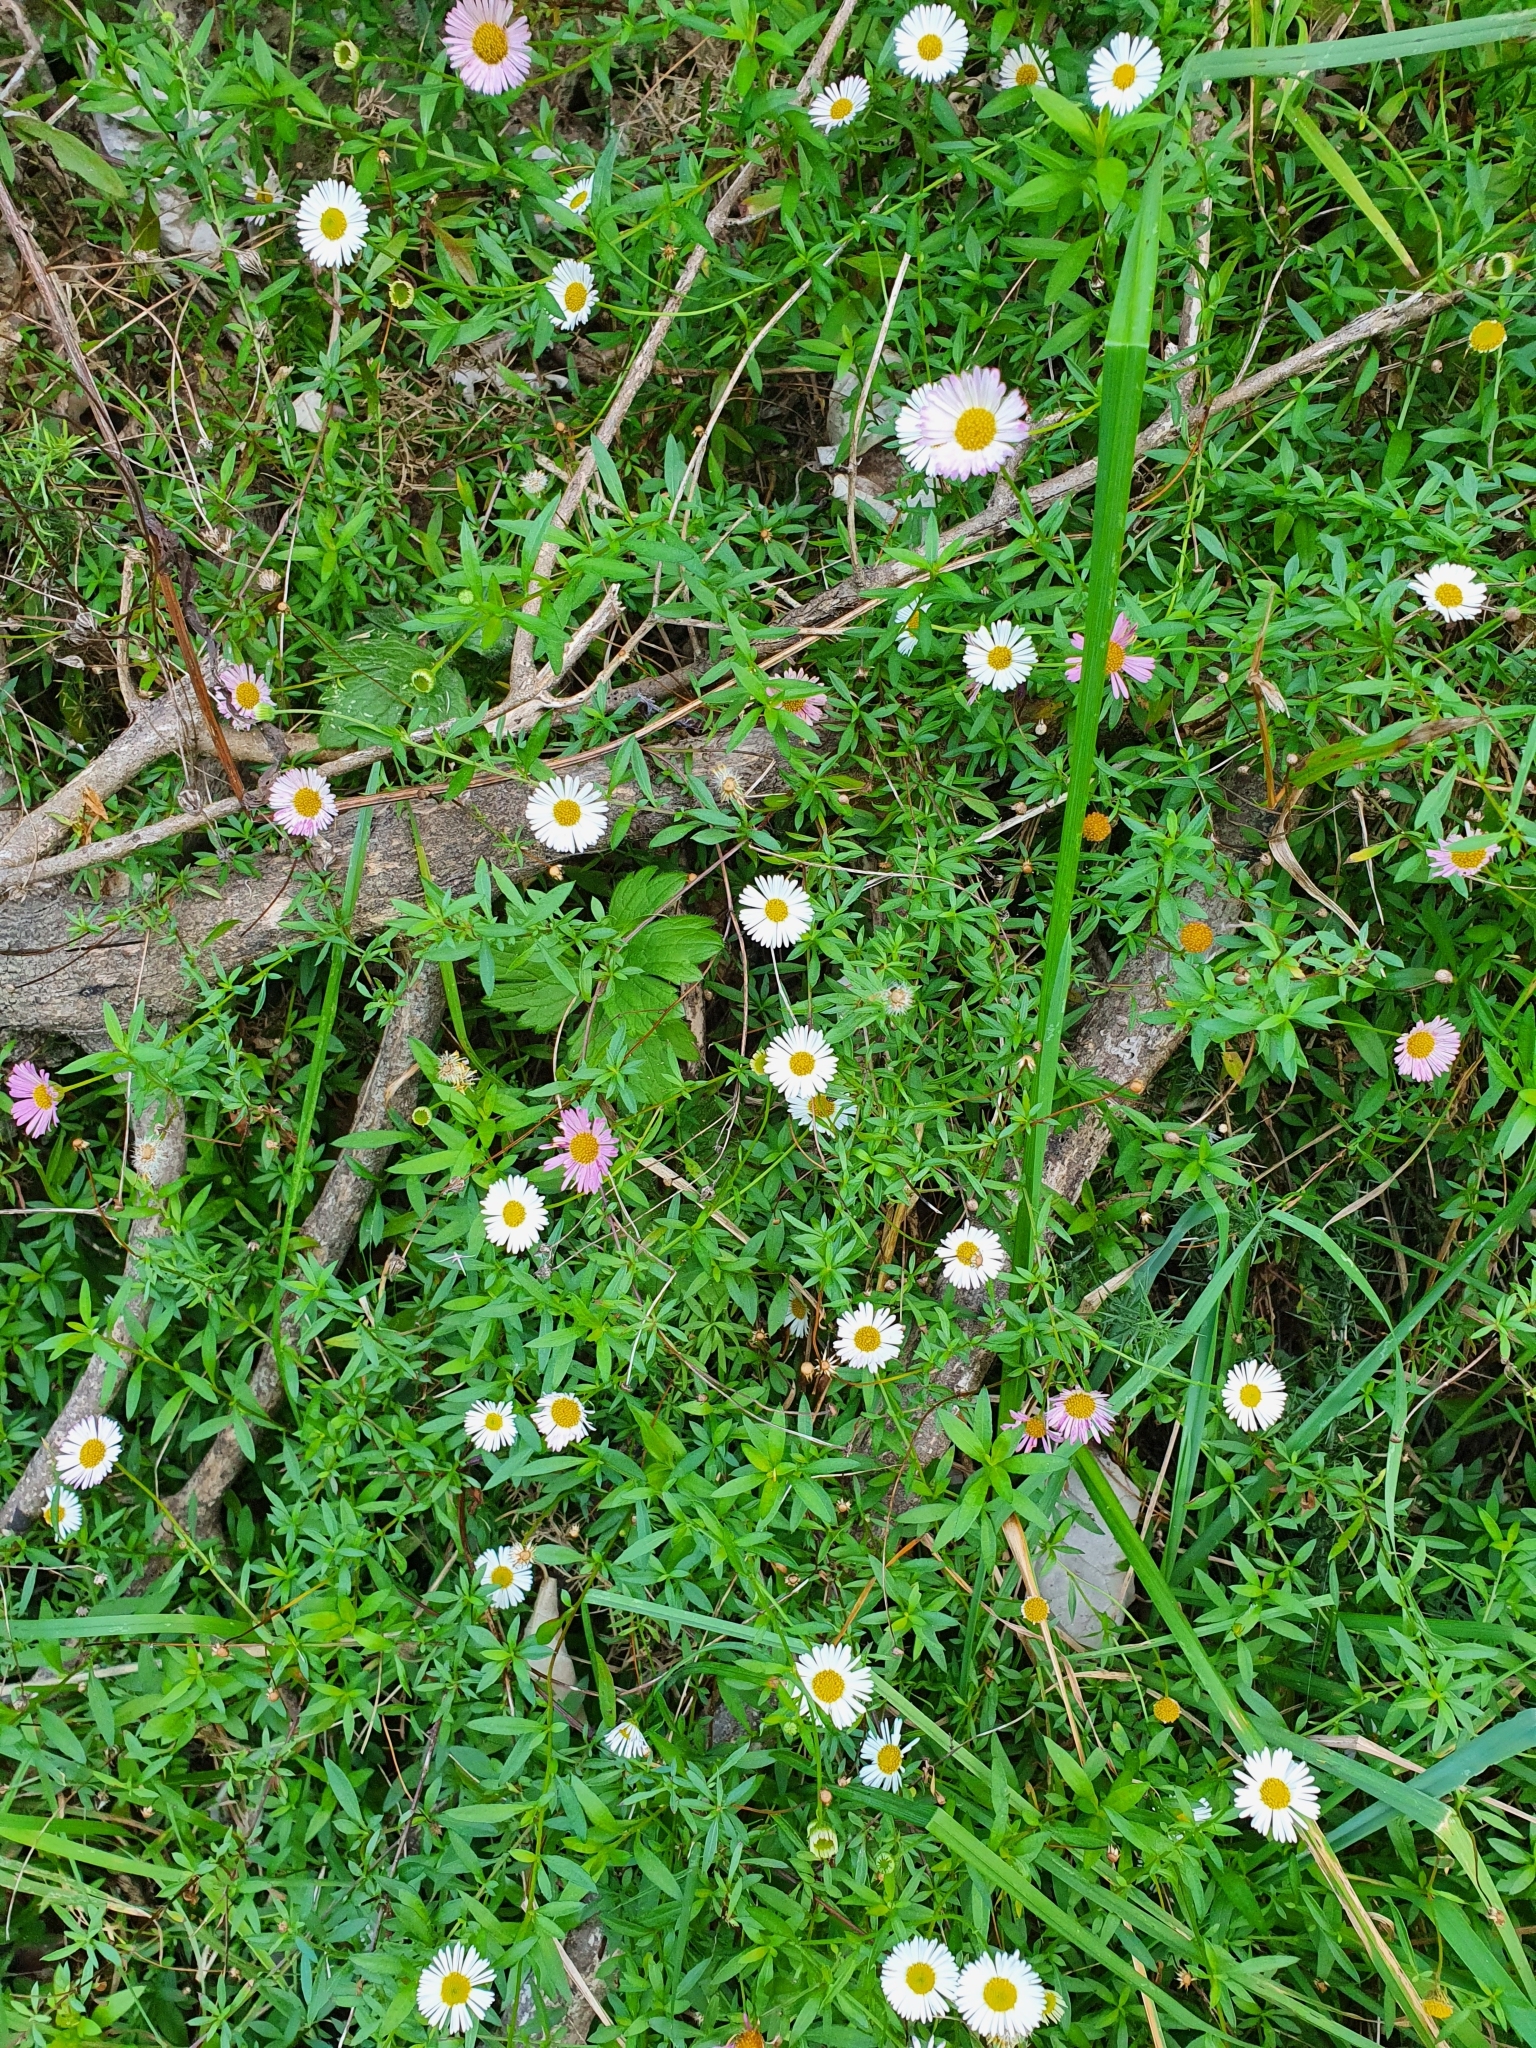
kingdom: Plantae
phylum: Tracheophyta
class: Magnoliopsida
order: Asterales
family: Asteraceae
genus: Erigeron
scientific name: Erigeron karvinskianus
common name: Mexican fleabane
